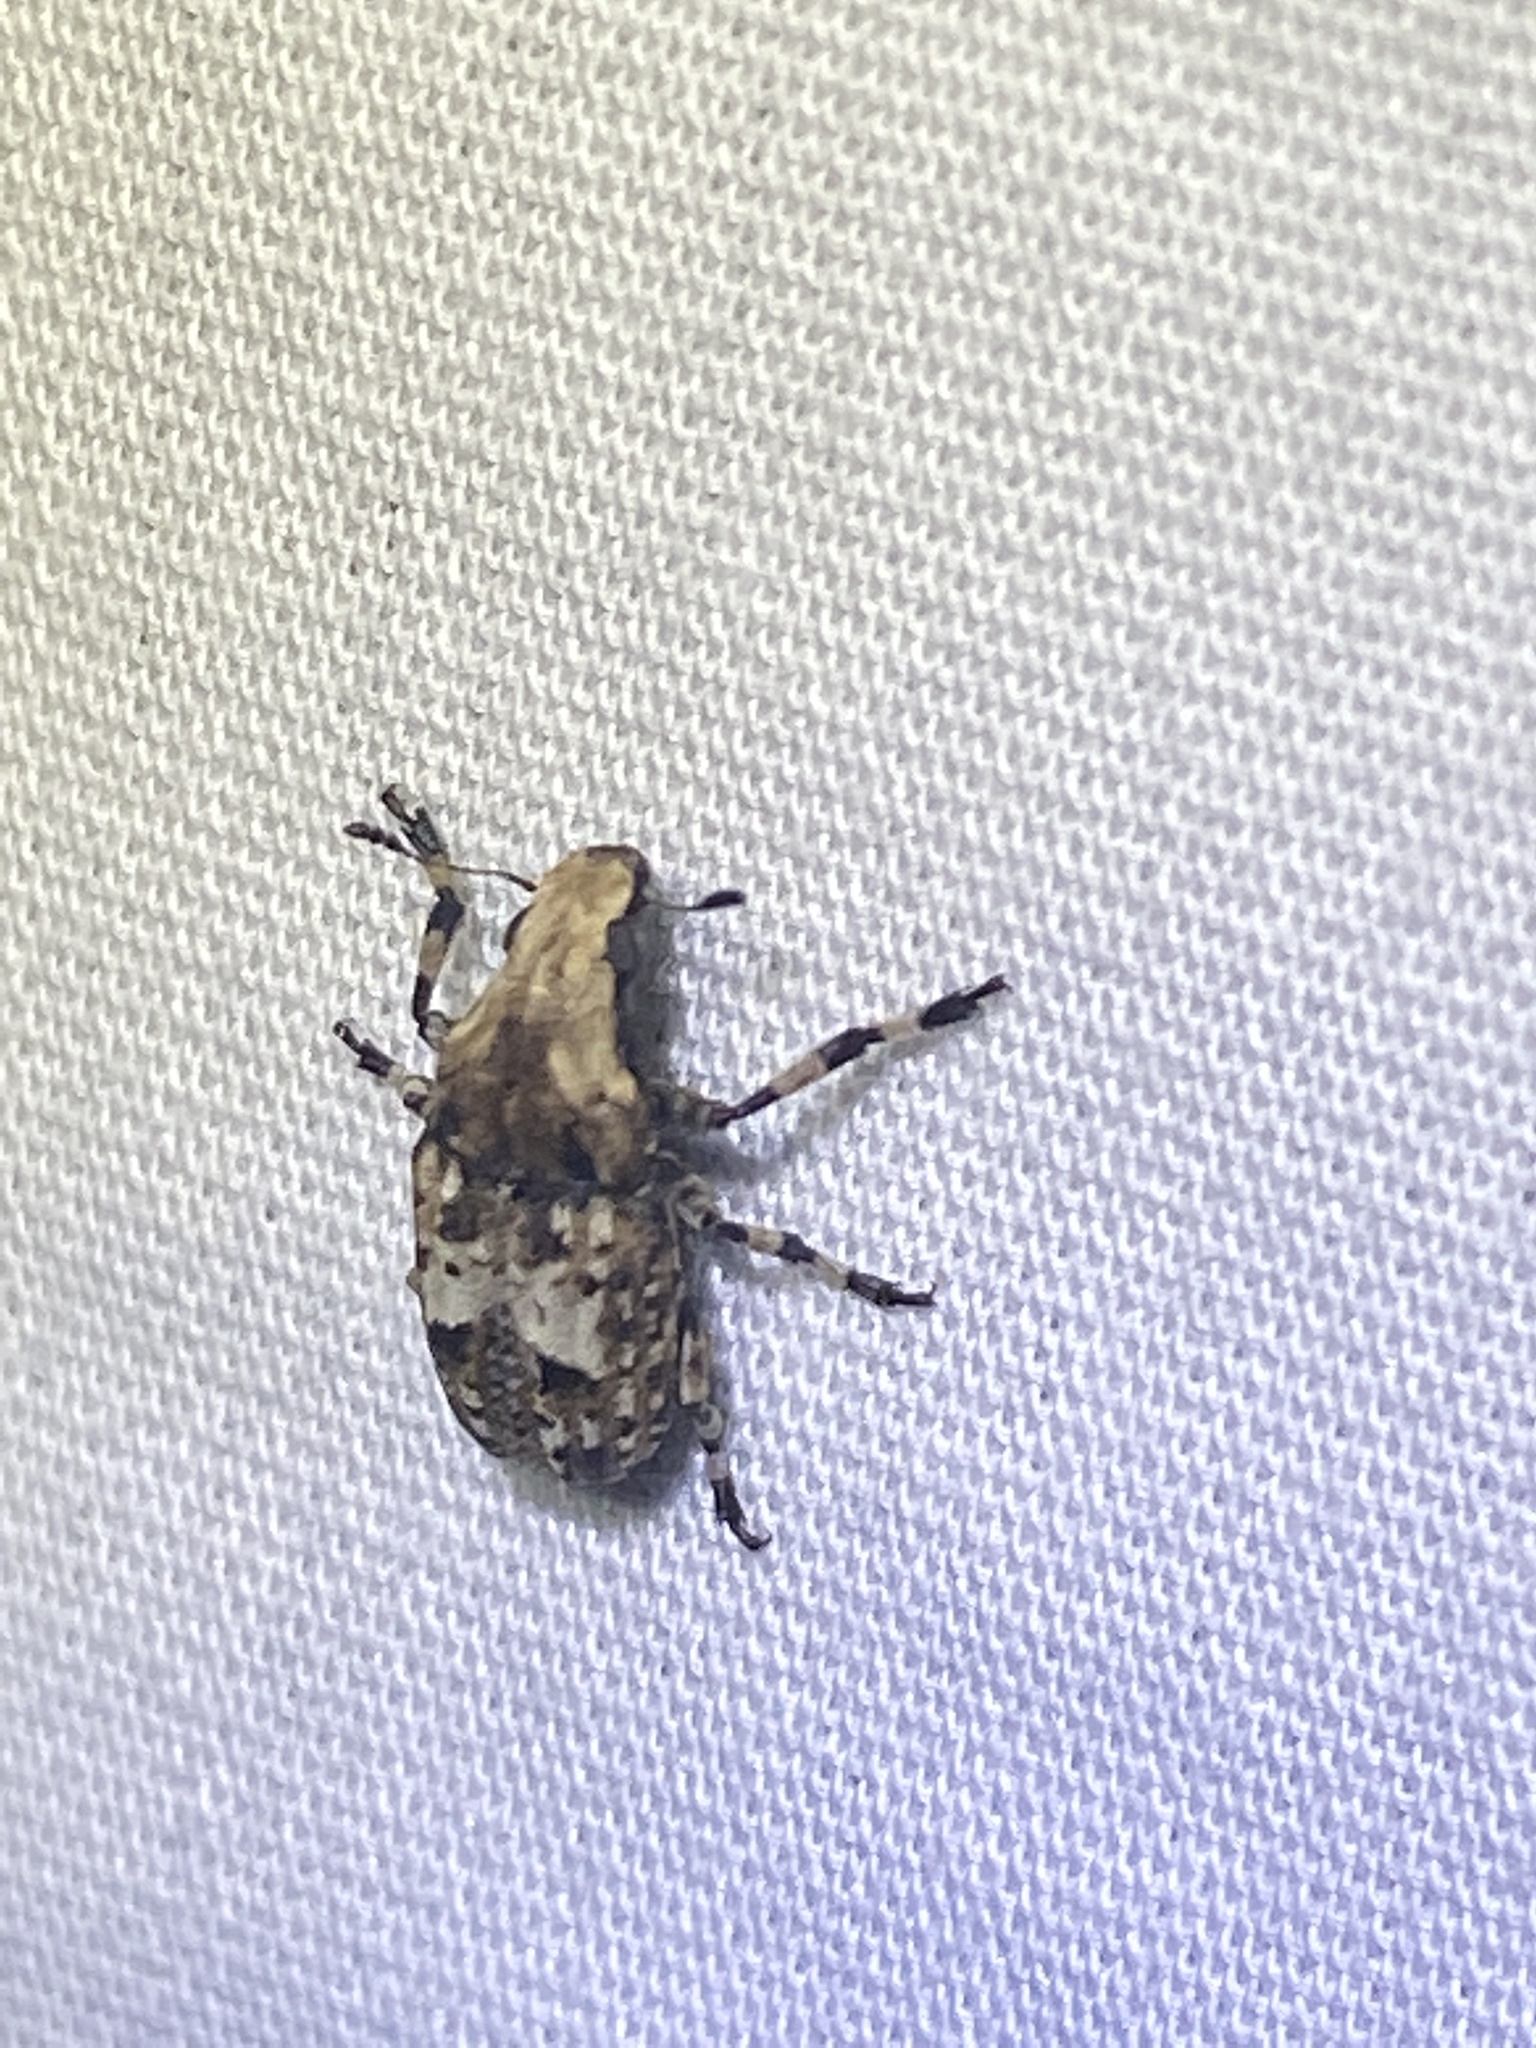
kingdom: Animalia
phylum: Arthropoda
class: Insecta
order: Coleoptera
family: Anthribidae
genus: Euparius
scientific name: Euparius marmoreus
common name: Marbled fungus weevil
